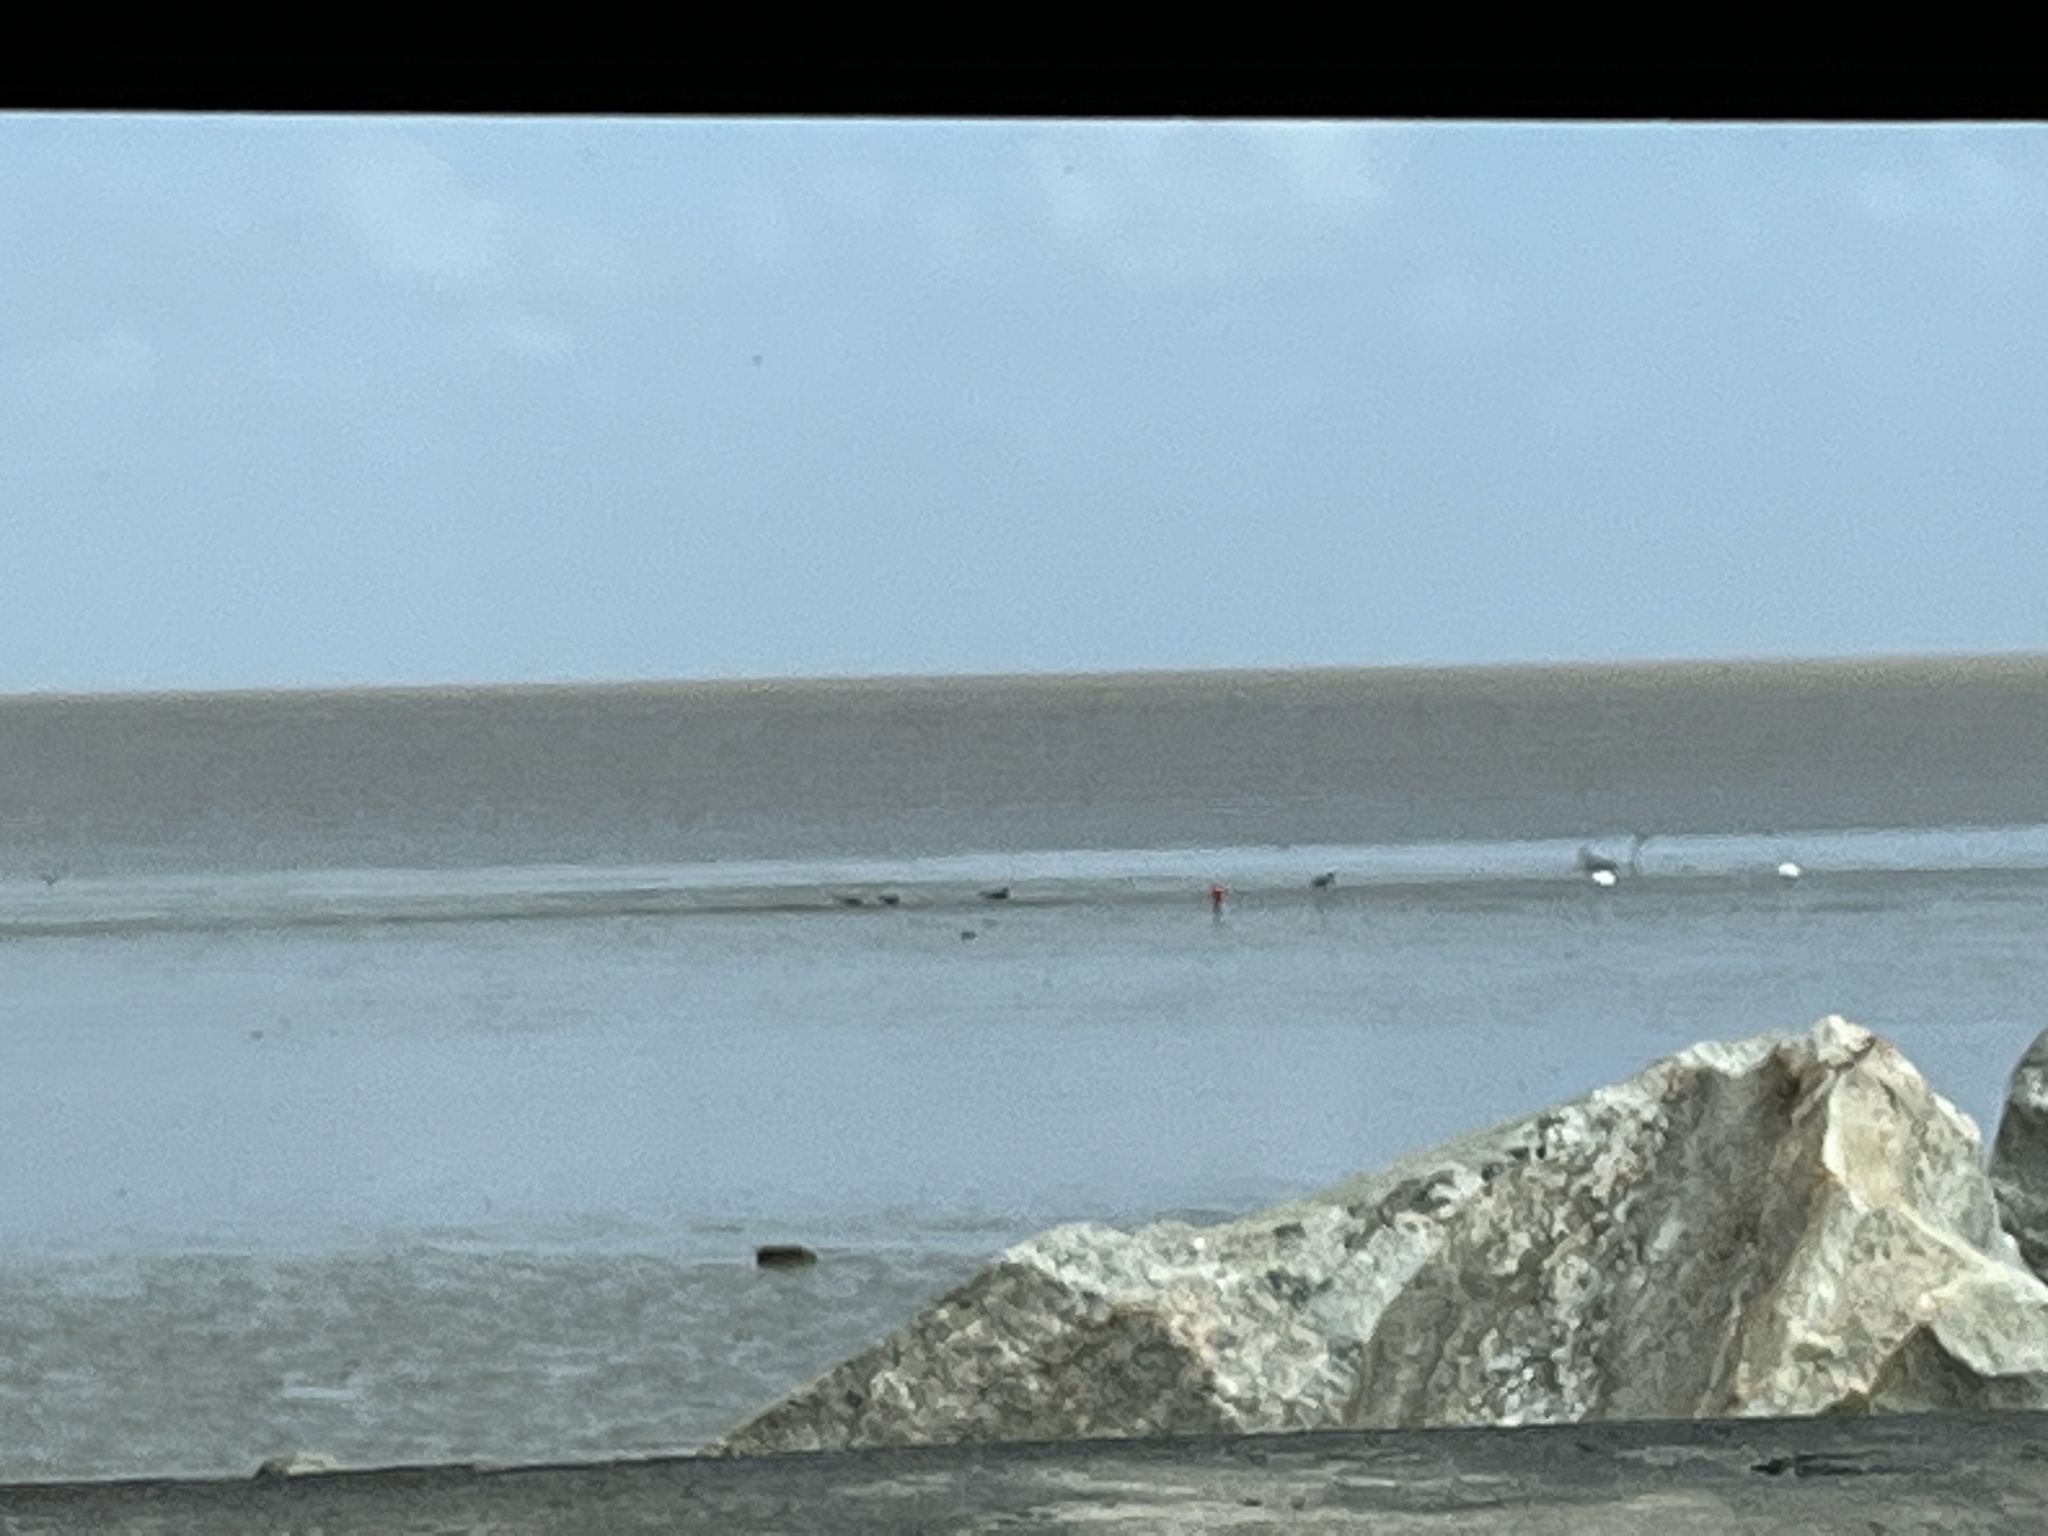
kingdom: Animalia
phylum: Chordata
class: Aves
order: Pelecaniformes
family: Threskiornithidae
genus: Eudocimus
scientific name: Eudocimus ruber
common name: Scarlet ibis
